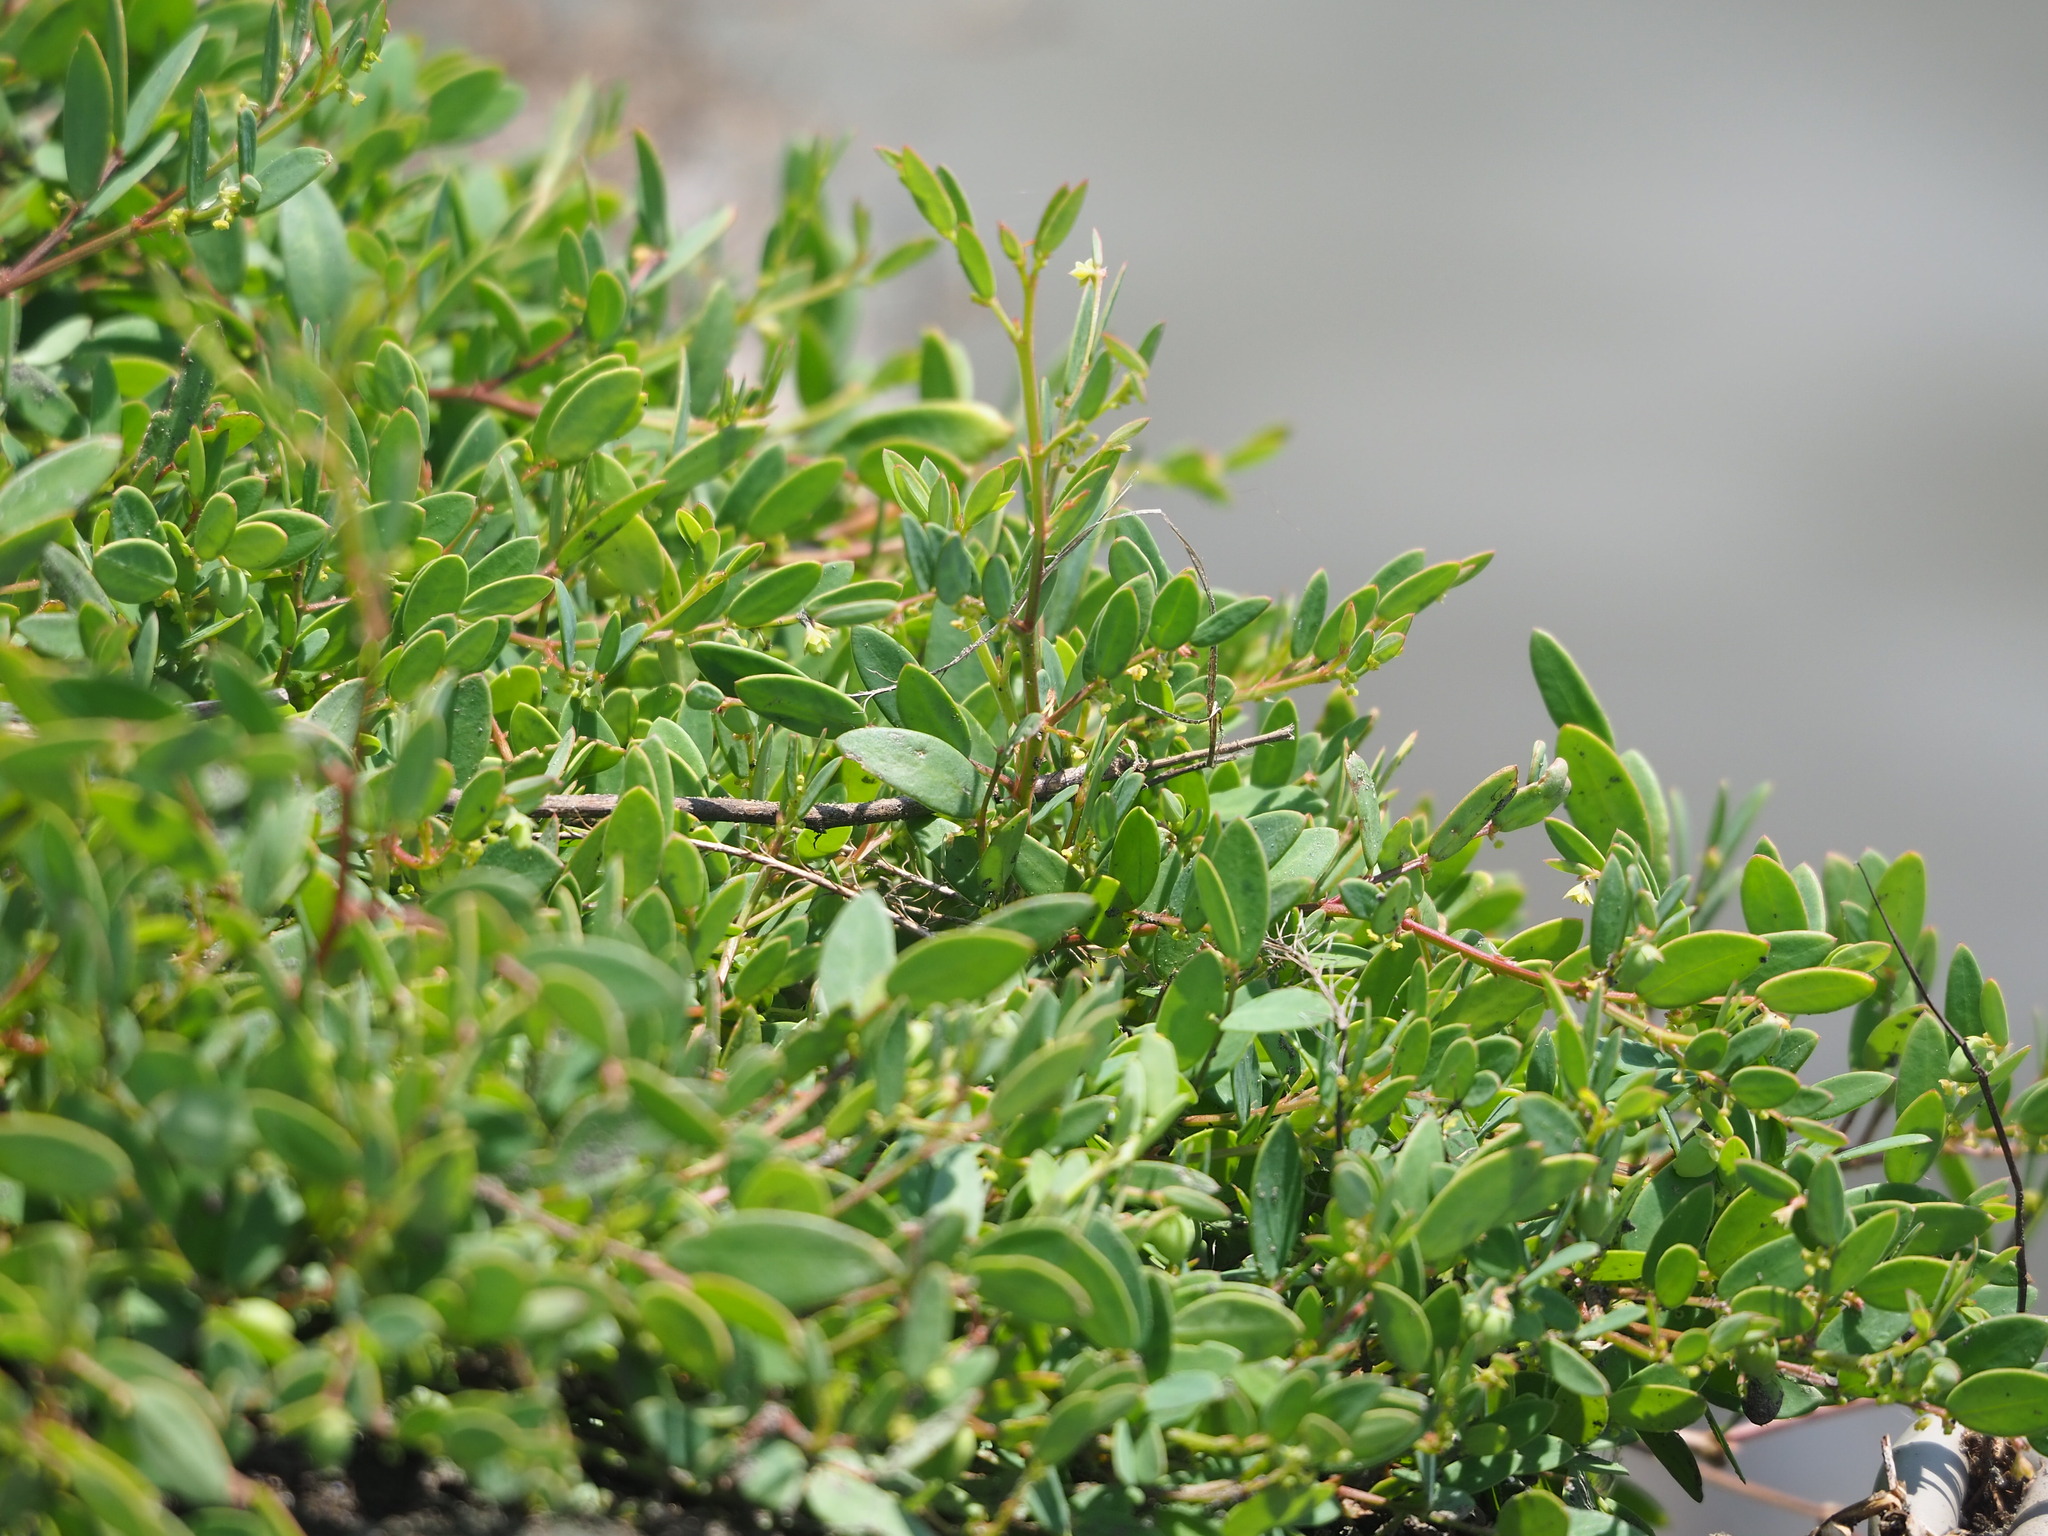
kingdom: Plantae
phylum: Tracheophyta
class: Magnoliopsida
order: Malpighiales
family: Phyllanthaceae
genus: Synostemon
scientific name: Synostemon bacciformis
